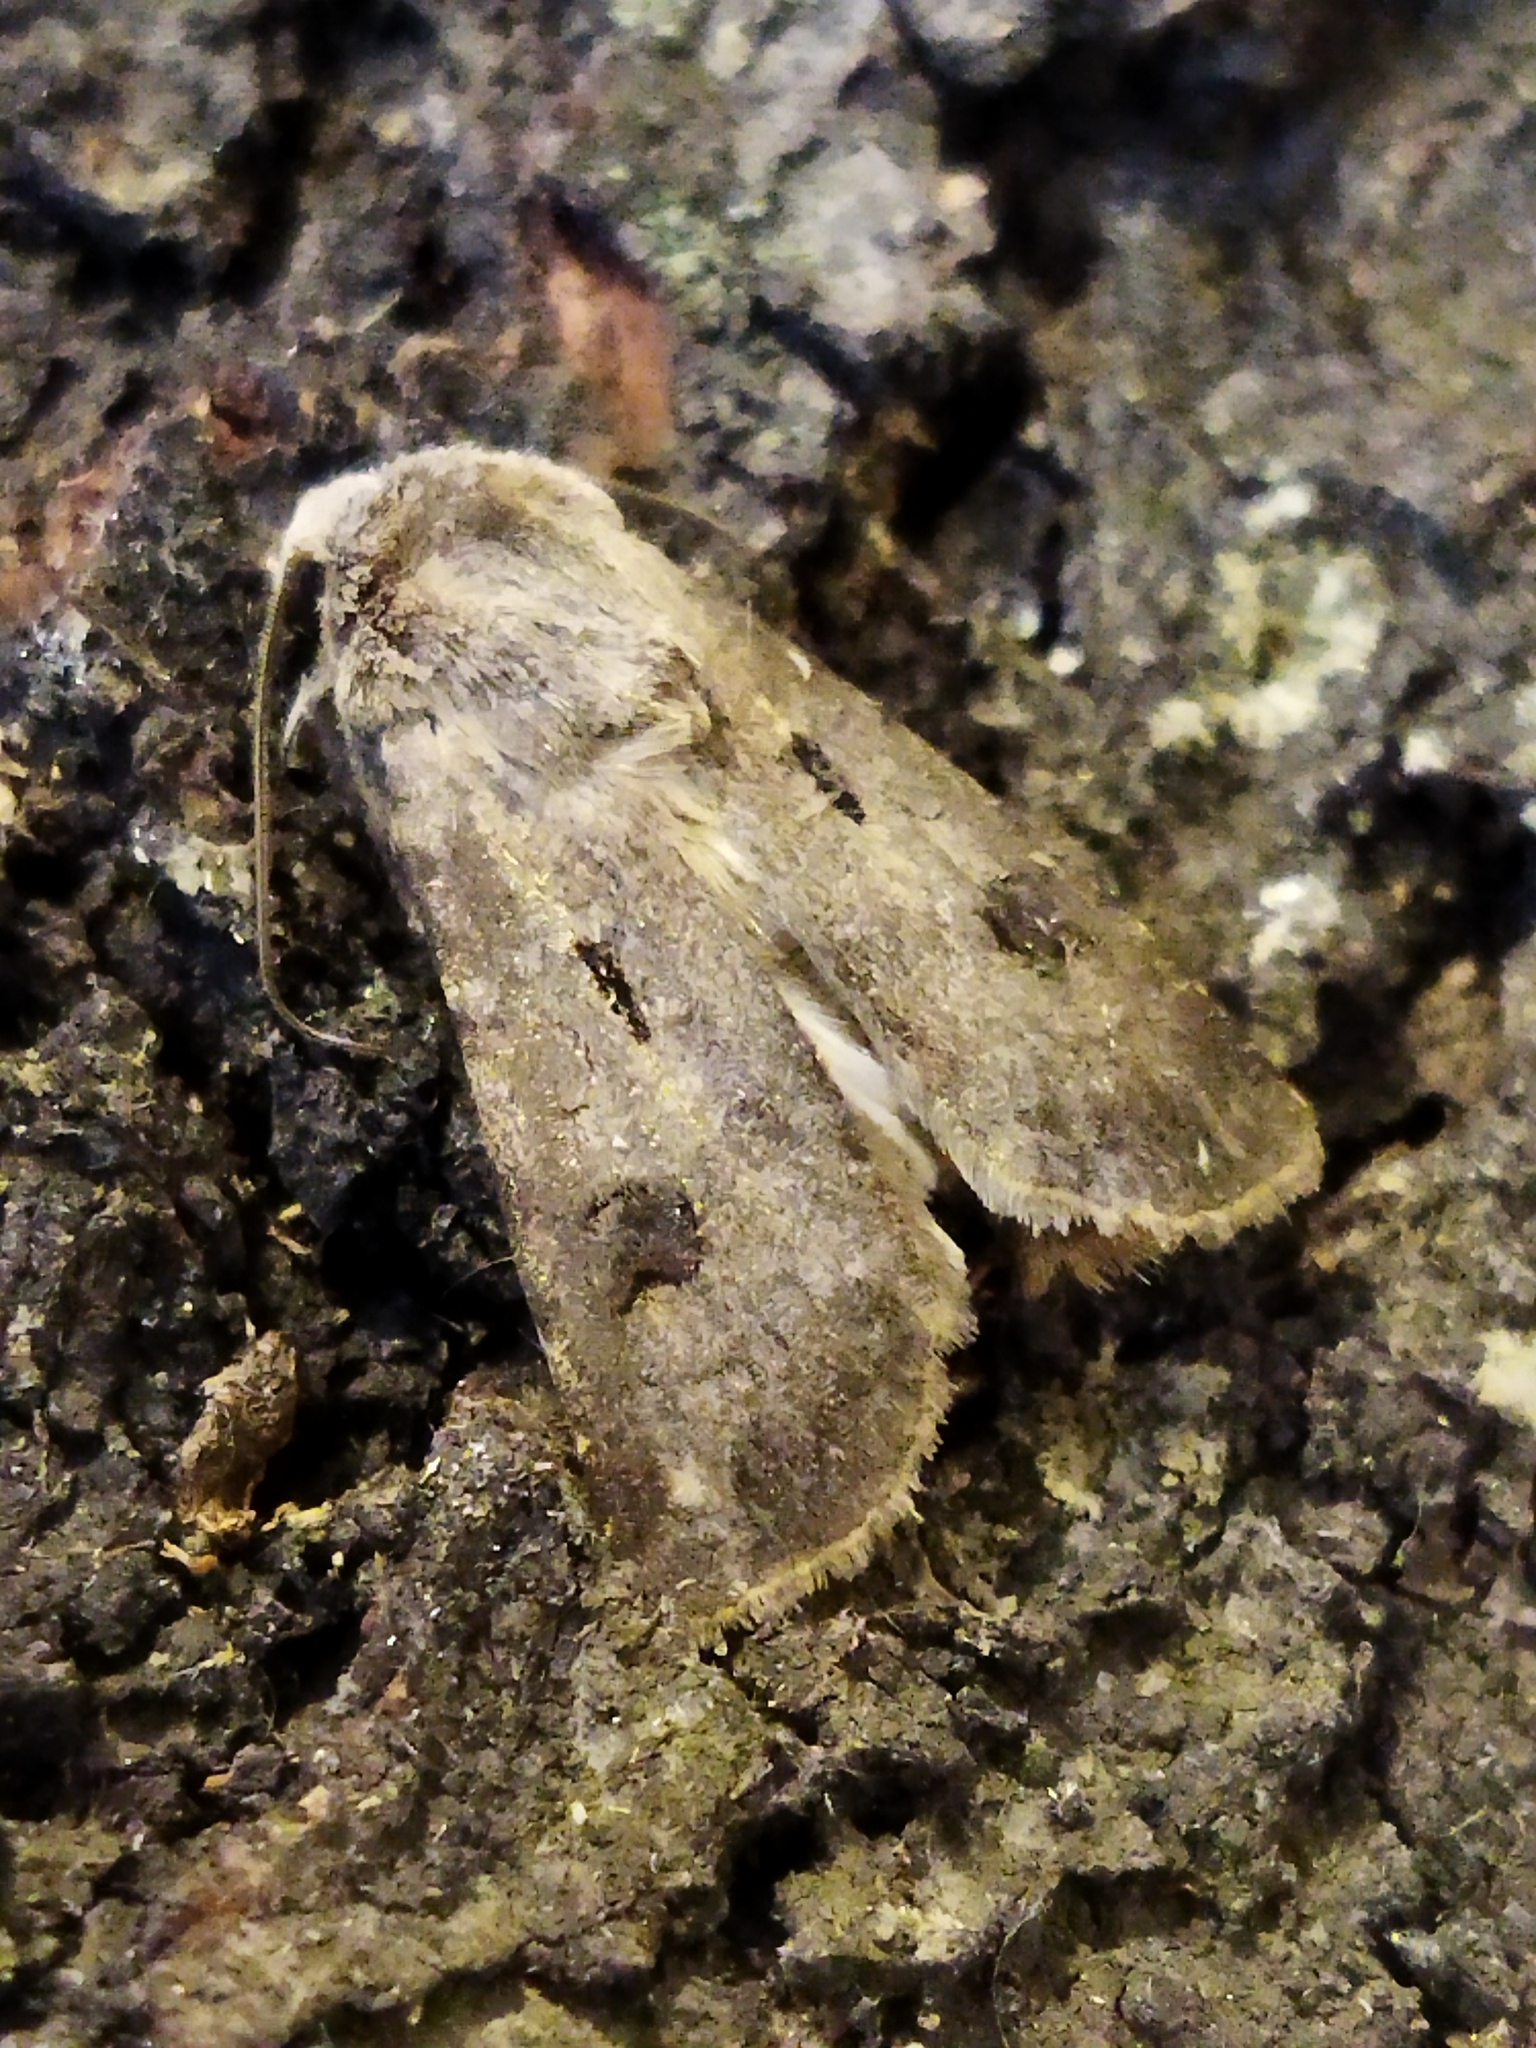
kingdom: Animalia
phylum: Arthropoda
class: Insecta
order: Lepidoptera
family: Noctuidae
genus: Agrotis
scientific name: Agrotis exclamationis
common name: Heart and dart
